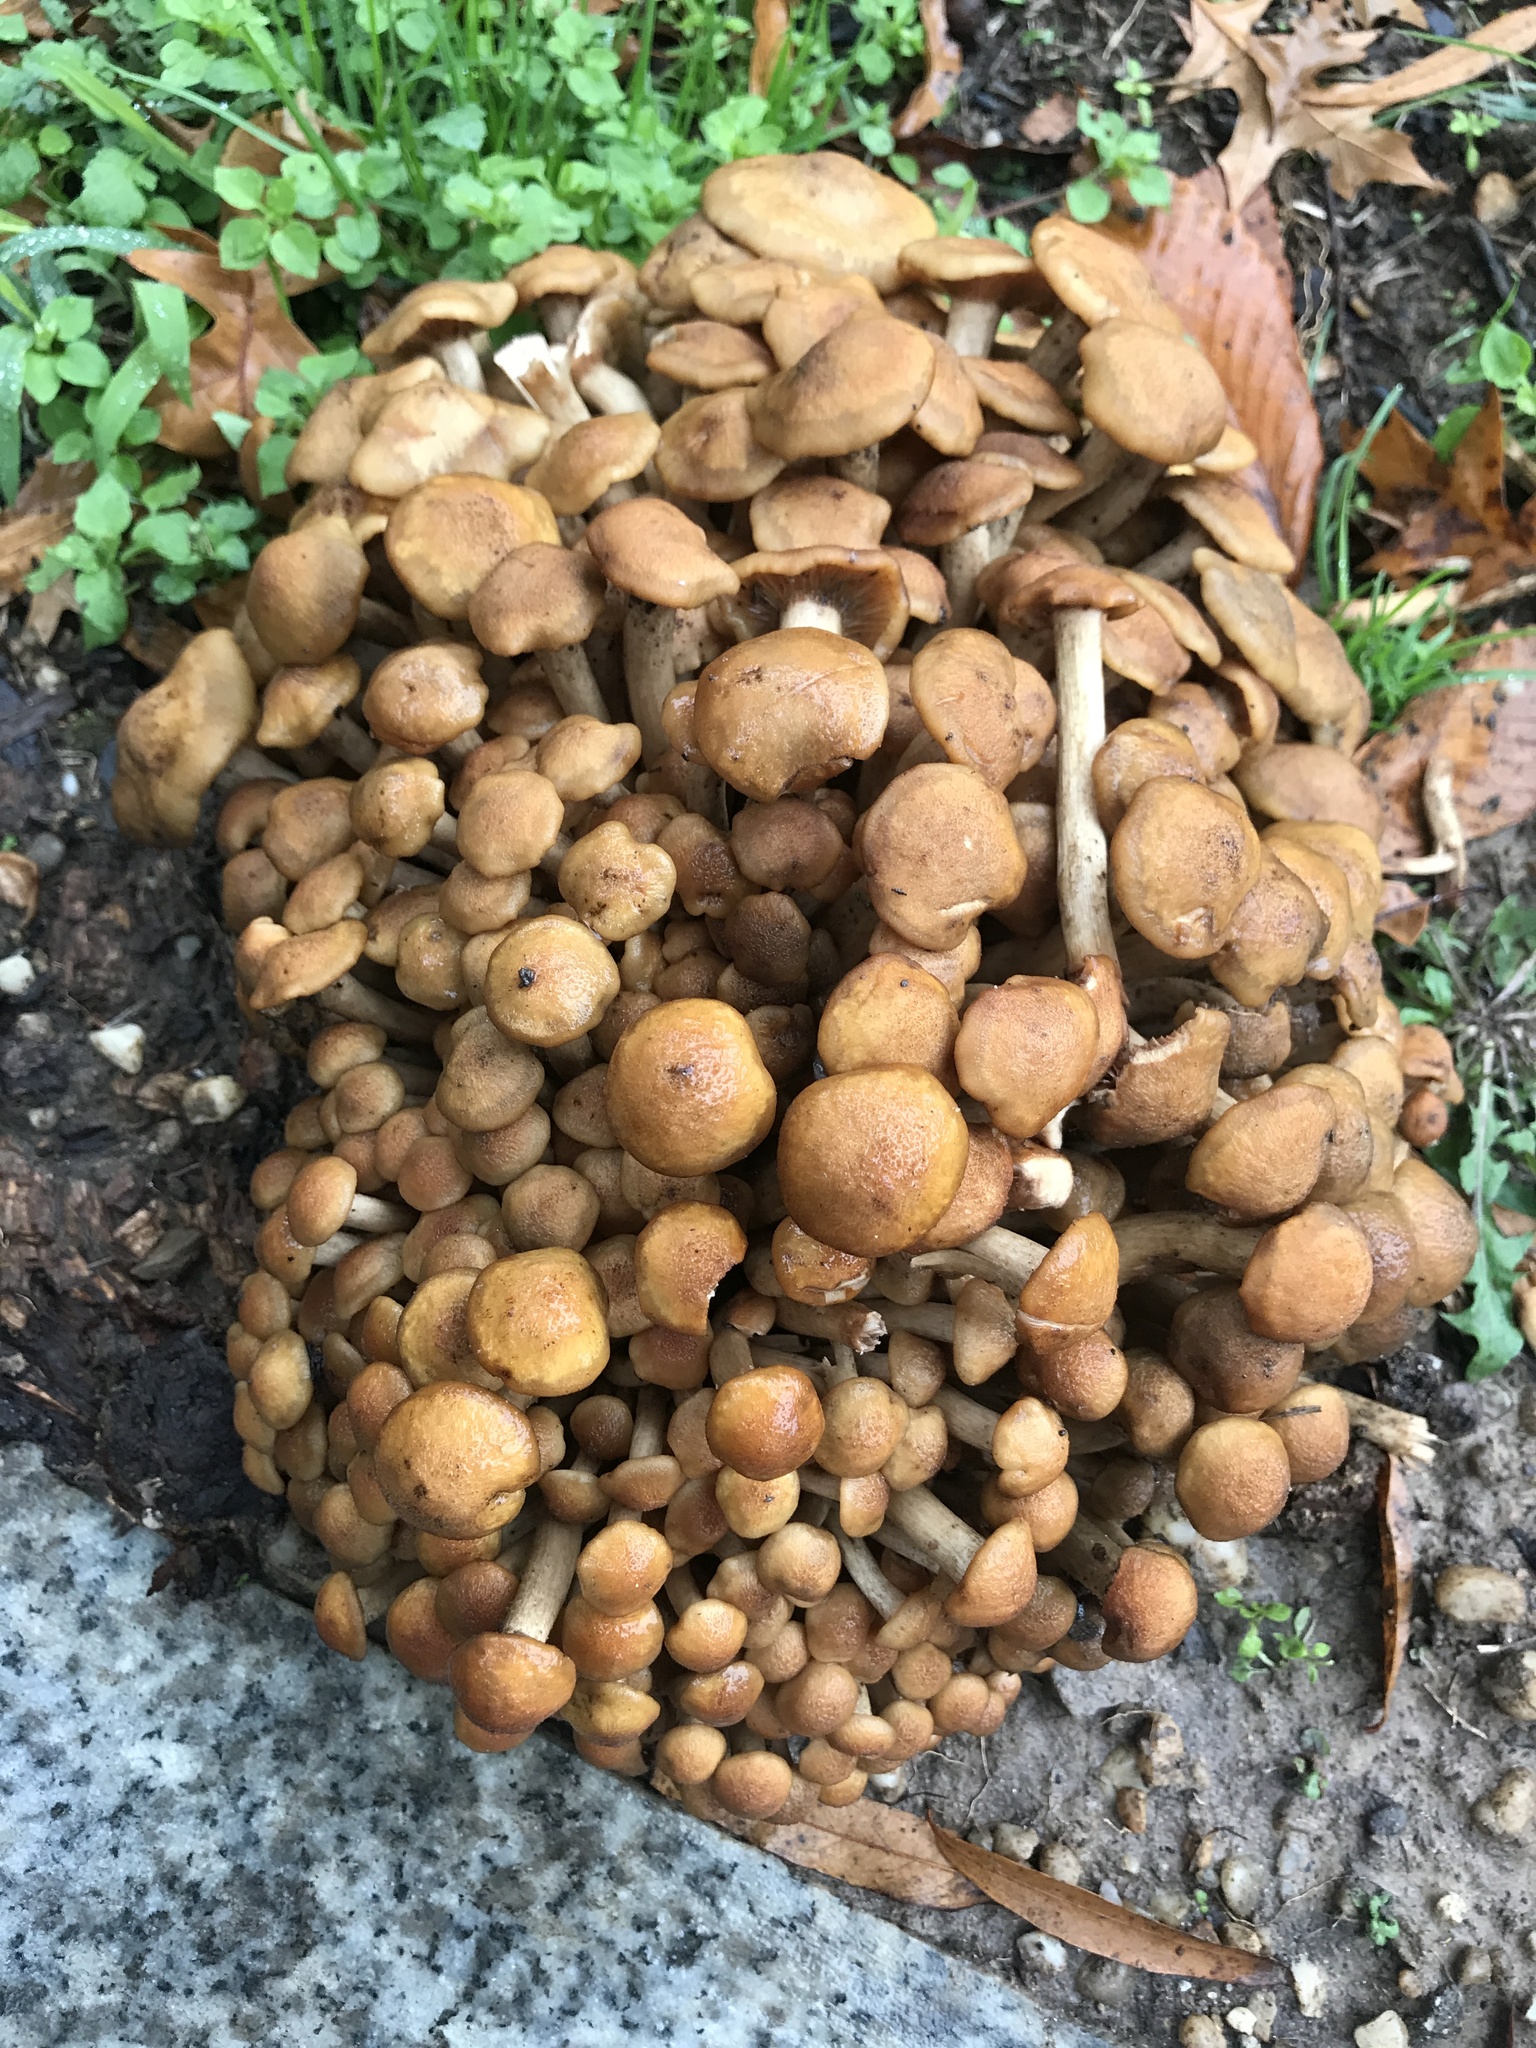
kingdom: Fungi
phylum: Basidiomycota
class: Agaricomycetes
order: Agaricales
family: Physalacriaceae
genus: Desarmillaria
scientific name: Desarmillaria caespitosa
